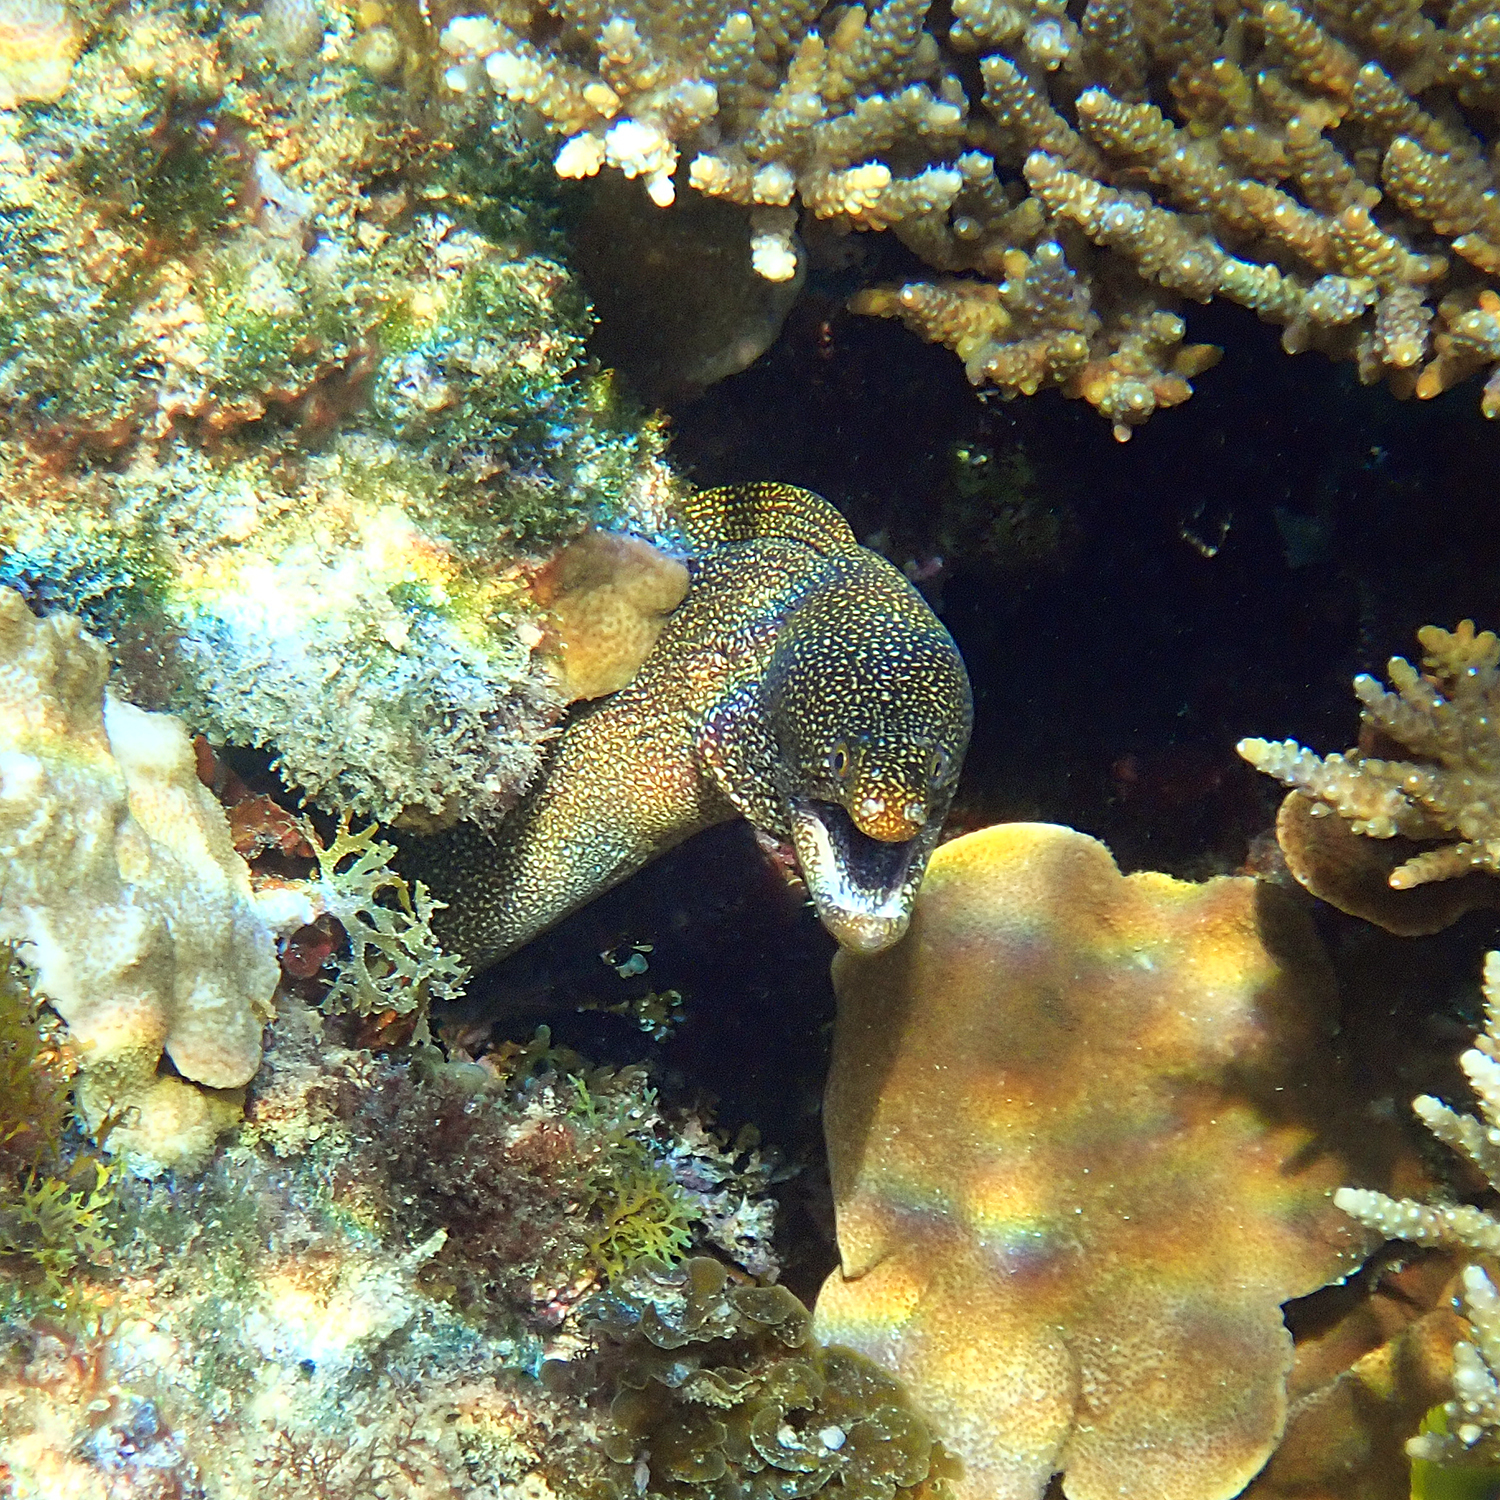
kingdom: Animalia
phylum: Chordata
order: Anguilliformes
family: Muraenidae
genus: Gymnothorax
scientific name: Gymnothorax eurostus
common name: Stout moray
